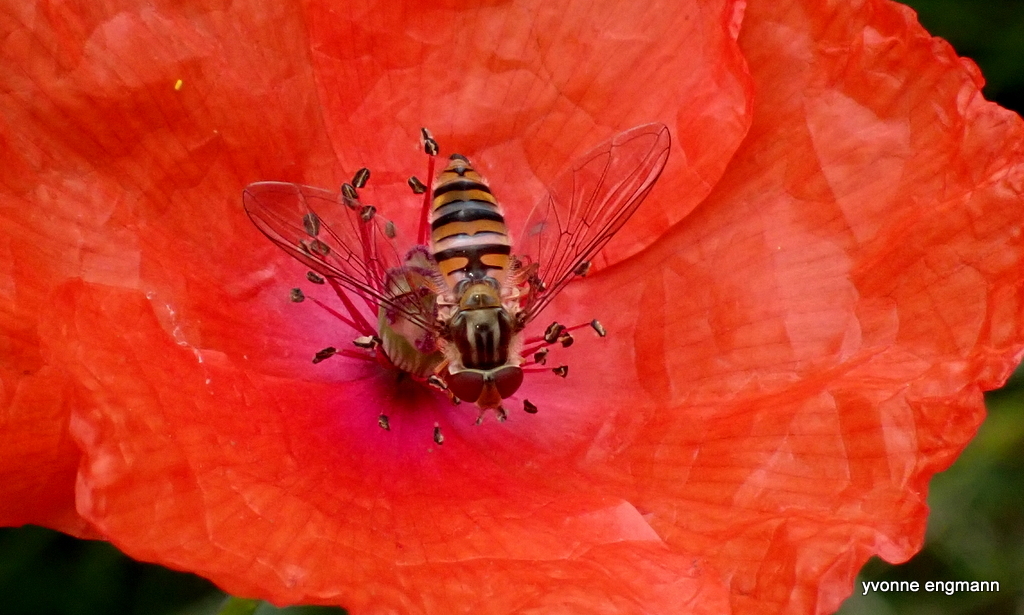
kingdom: Animalia
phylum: Arthropoda
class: Insecta
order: Diptera
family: Syrphidae
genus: Episyrphus
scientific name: Episyrphus balteatus
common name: Marmalade hoverfly
